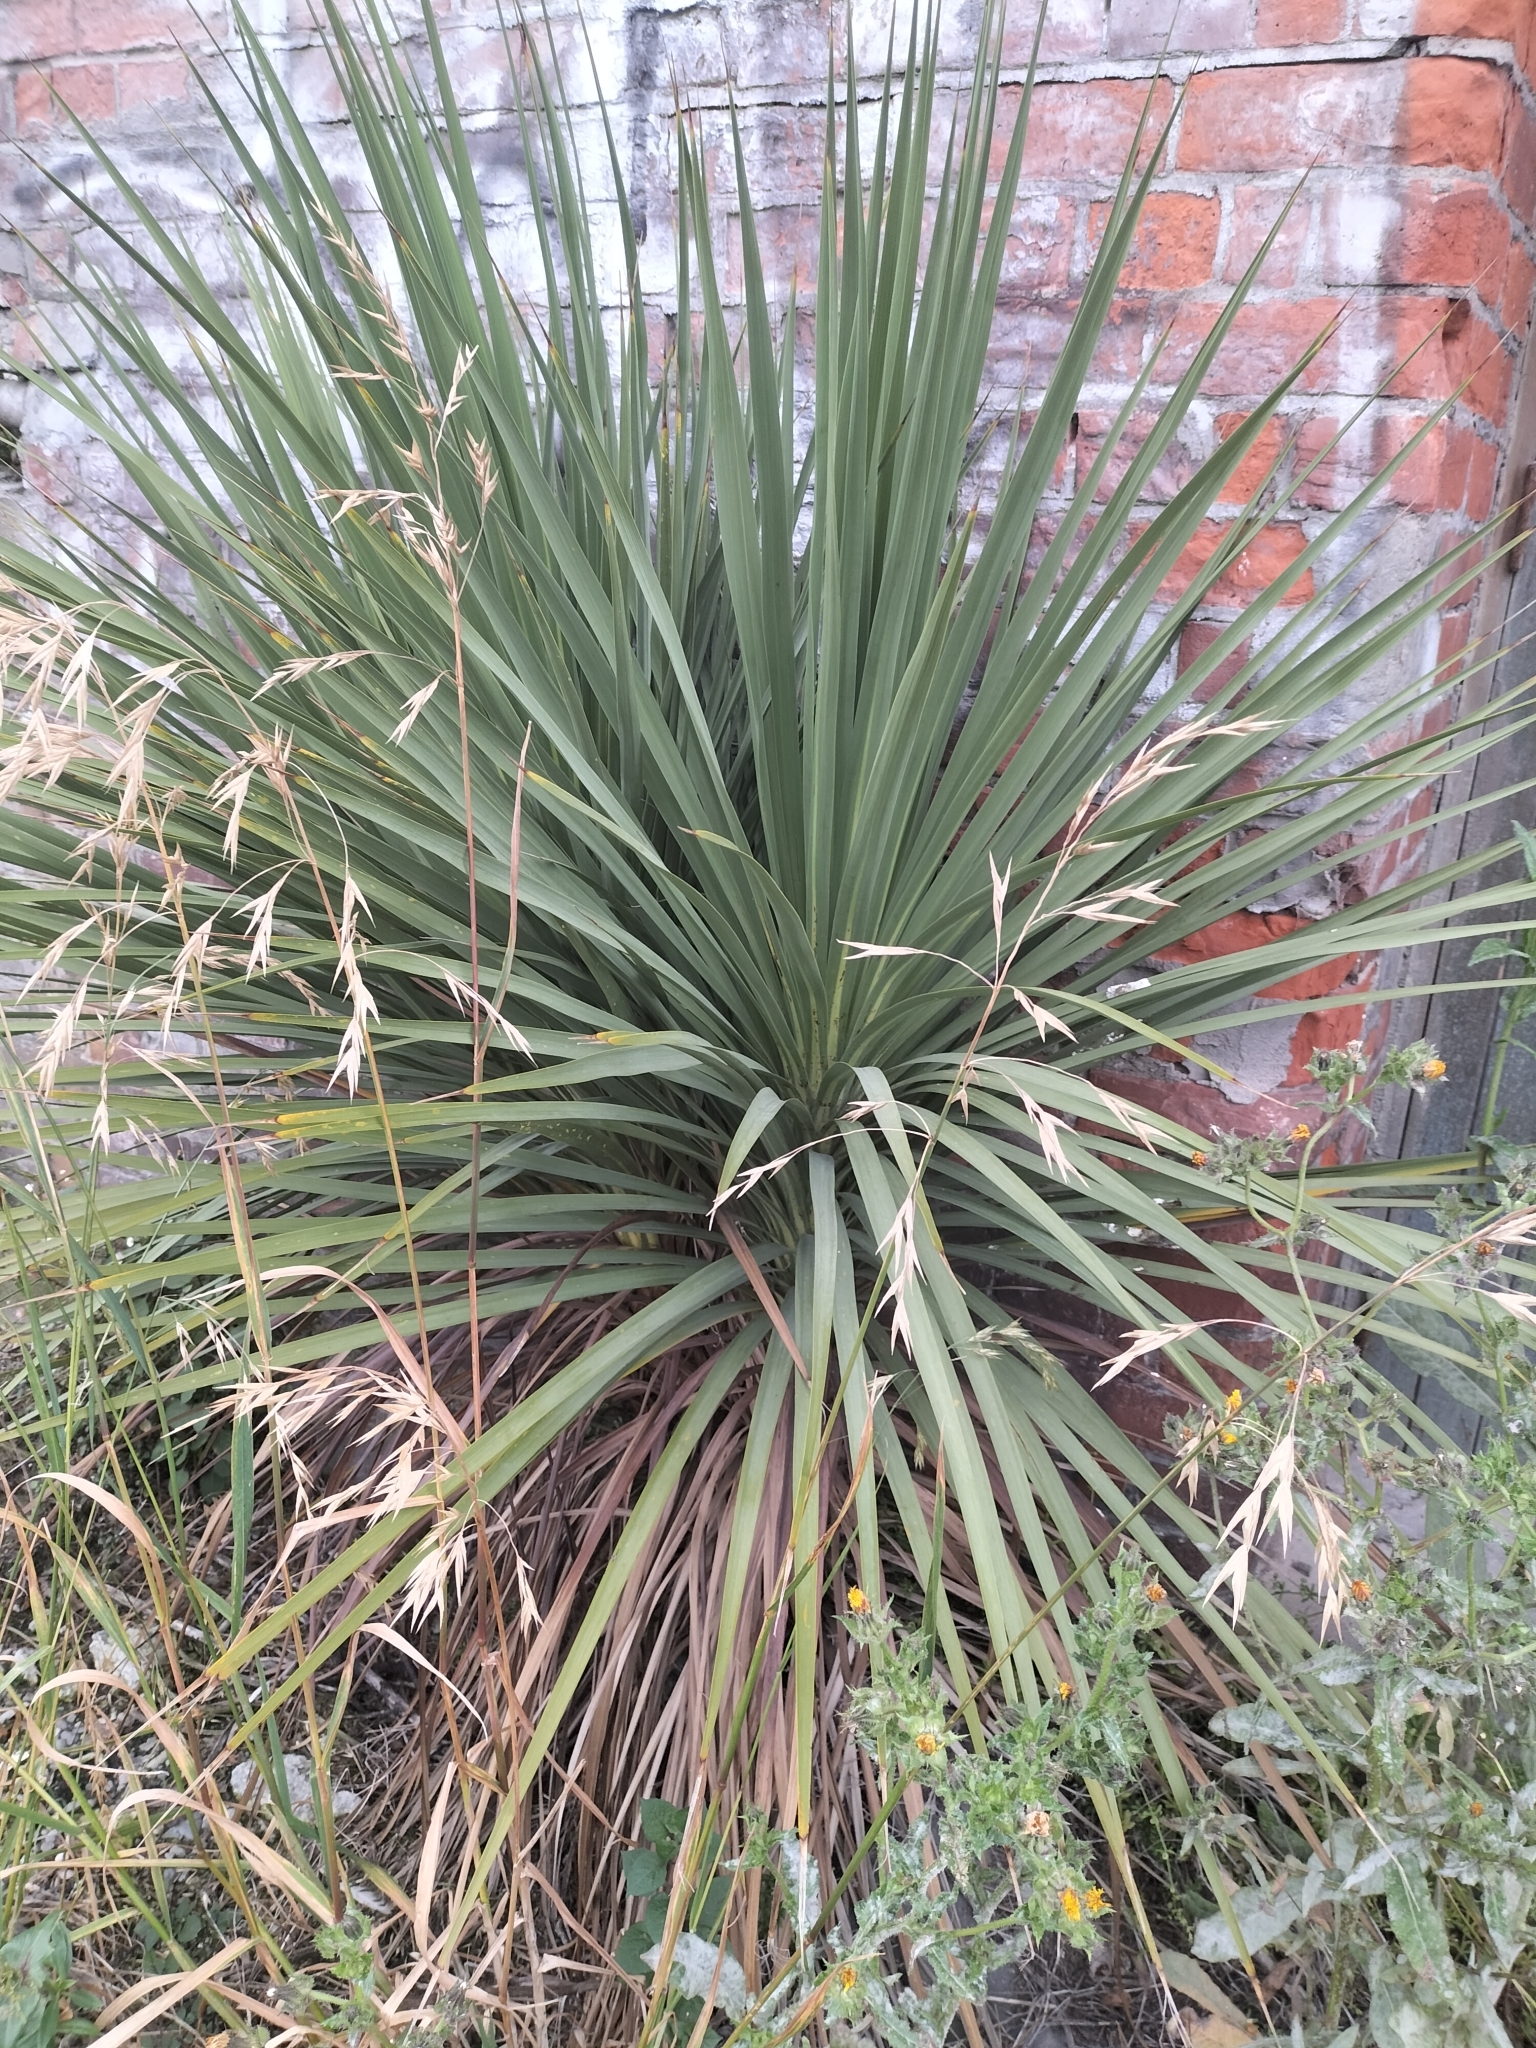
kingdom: Plantae
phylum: Tracheophyta
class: Liliopsida
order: Asparagales
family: Asparagaceae
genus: Cordyline
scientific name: Cordyline australis
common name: Cabbage-palm
